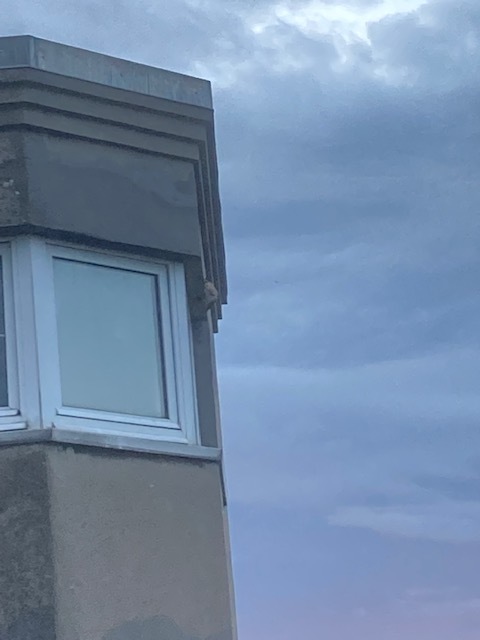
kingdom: Animalia
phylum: Arthropoda
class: Insecta
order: Hymenoptera
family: Vespidae
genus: Vespa
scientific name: Vespa velutina
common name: Asian hornet
